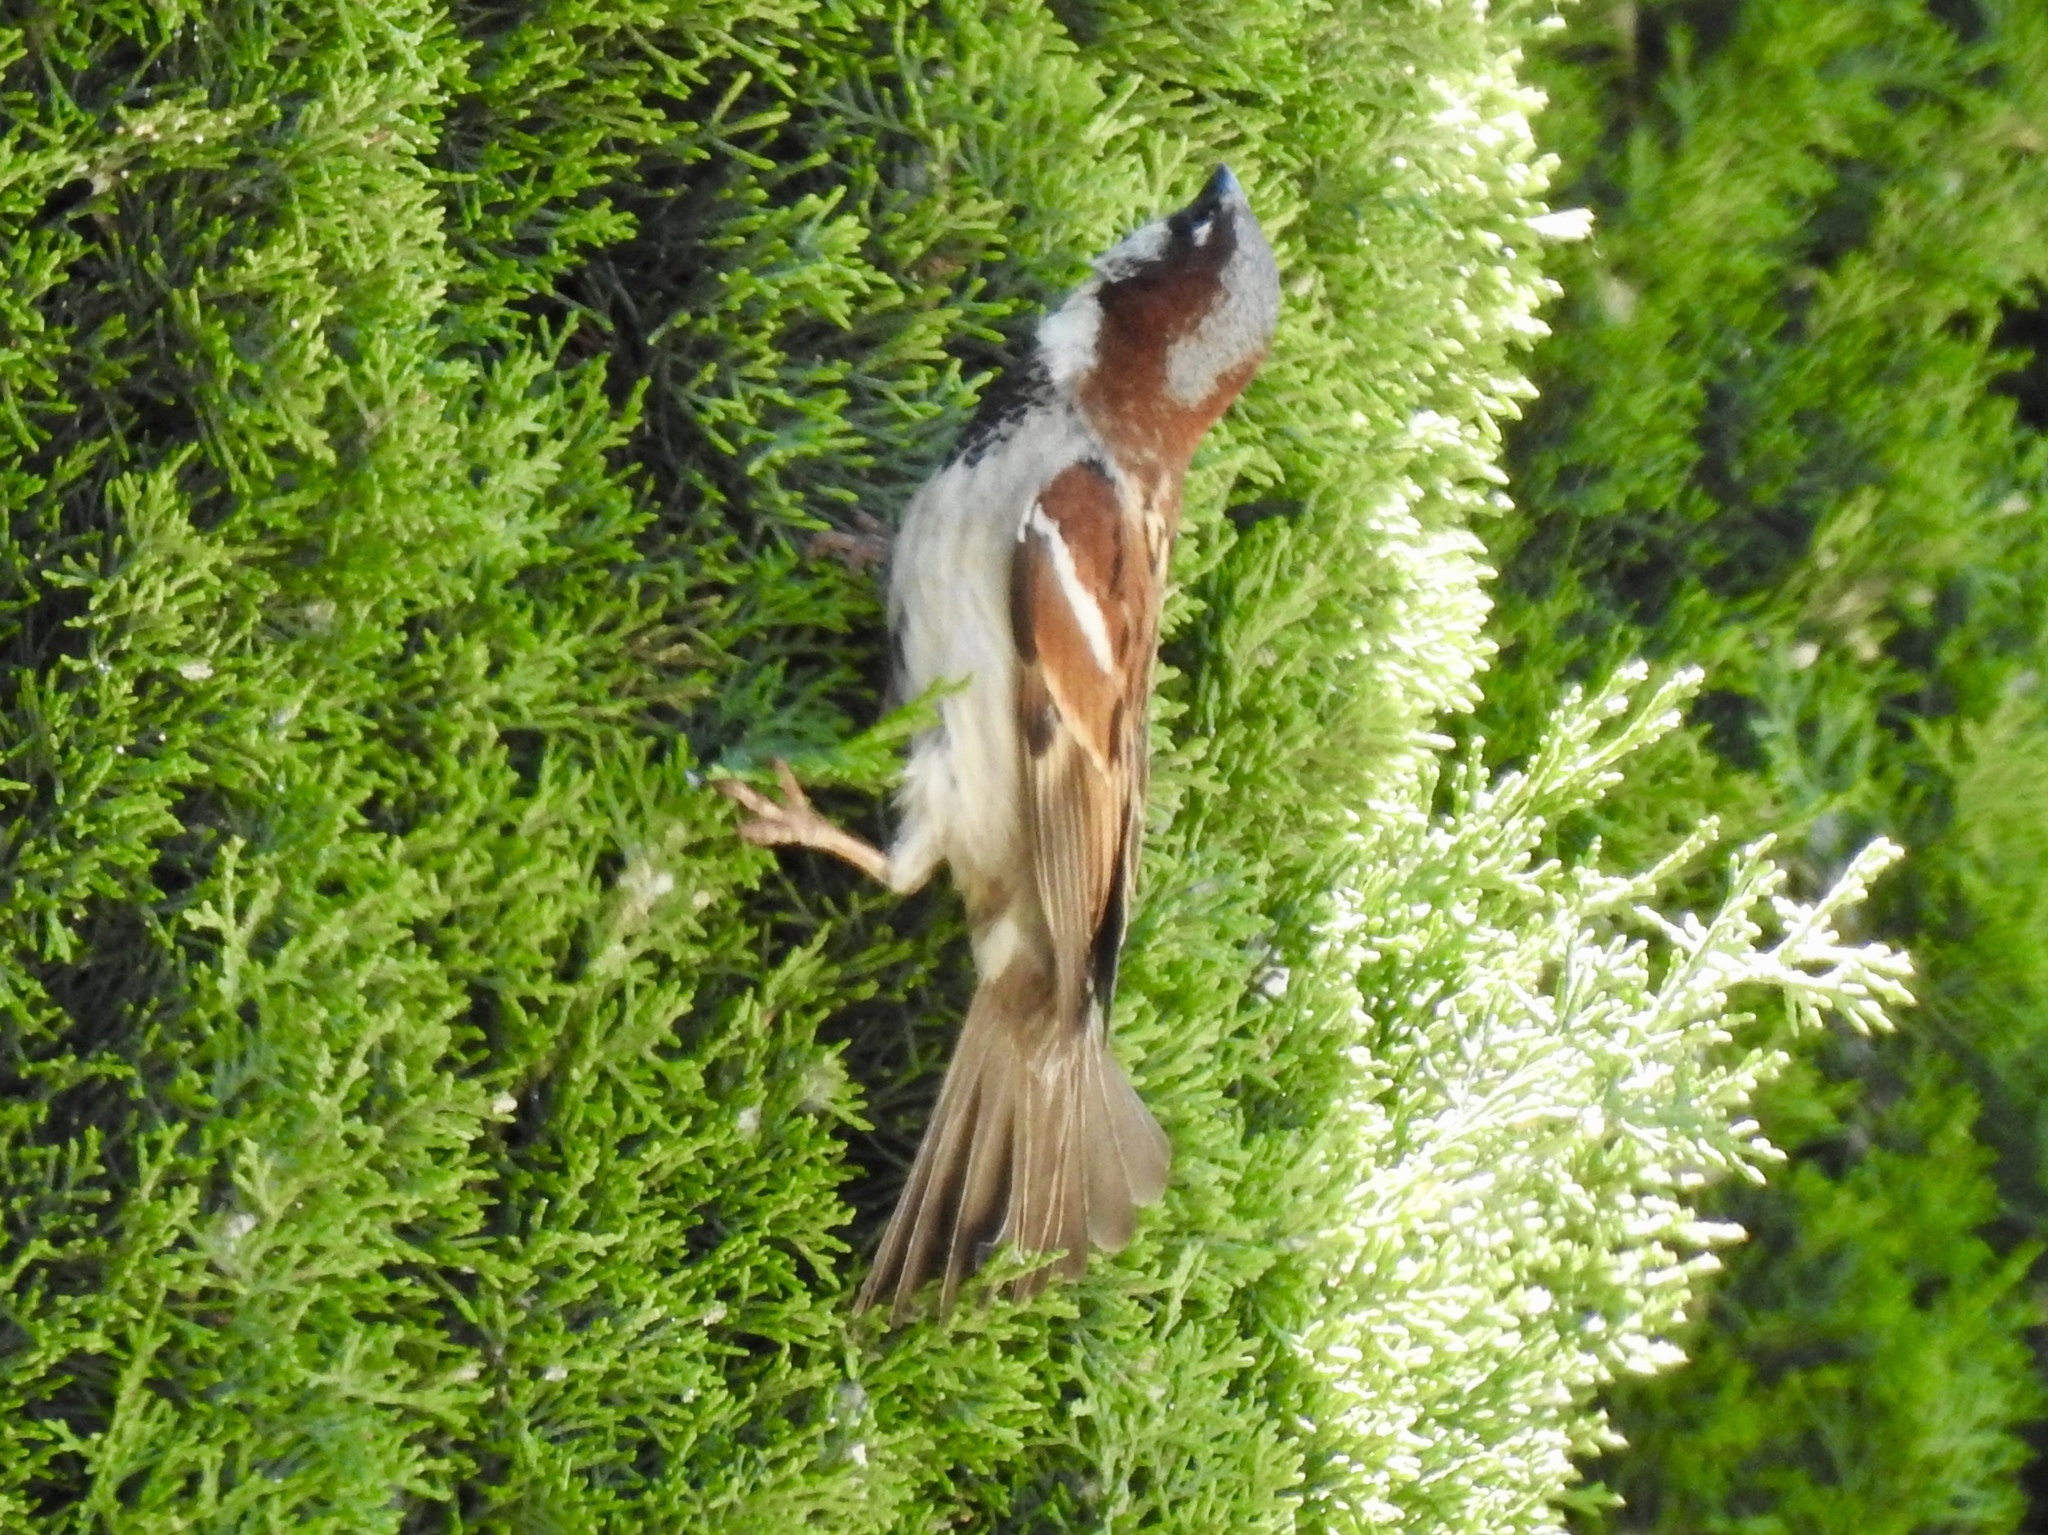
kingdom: Animalia
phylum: Chordata
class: Aves
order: Passeriformes
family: Passeridae
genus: Passer
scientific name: Passer domesticus
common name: House sparrow
